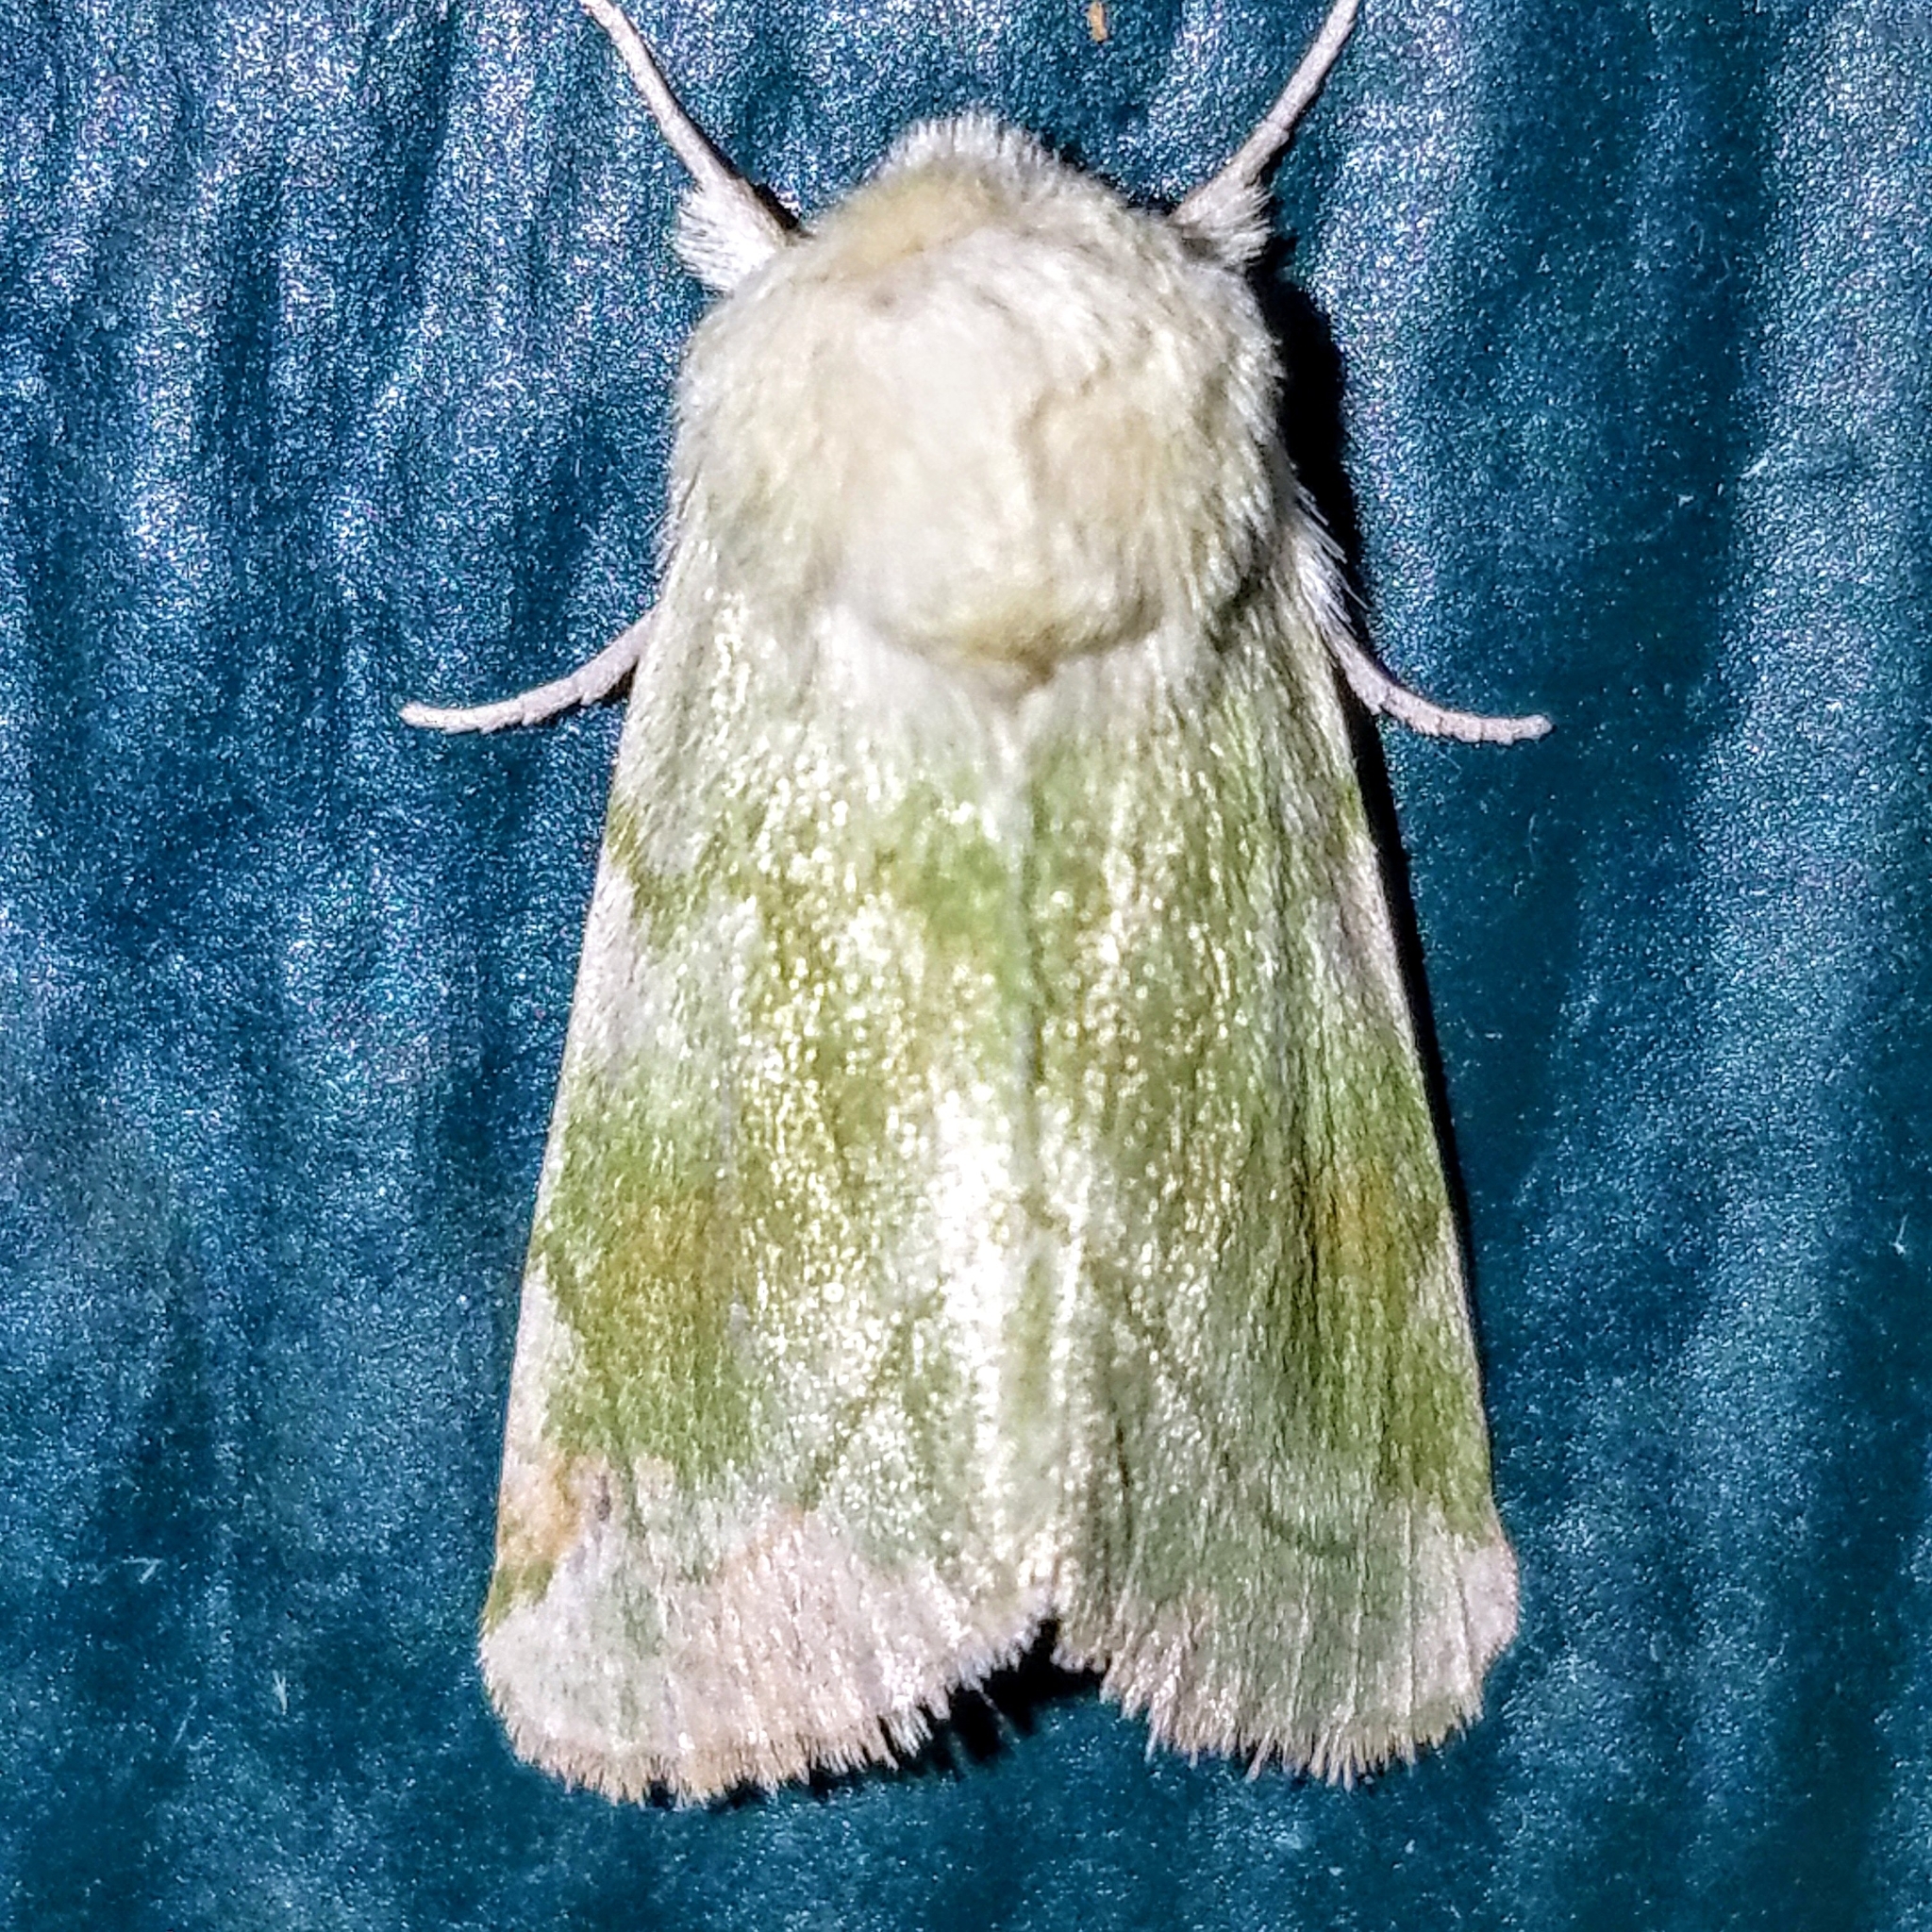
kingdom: Animalia
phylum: Arthropoda
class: Insecta
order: Lepidoptera
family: Noctuidae
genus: Zotheca
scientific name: Zotheca tranquilla
